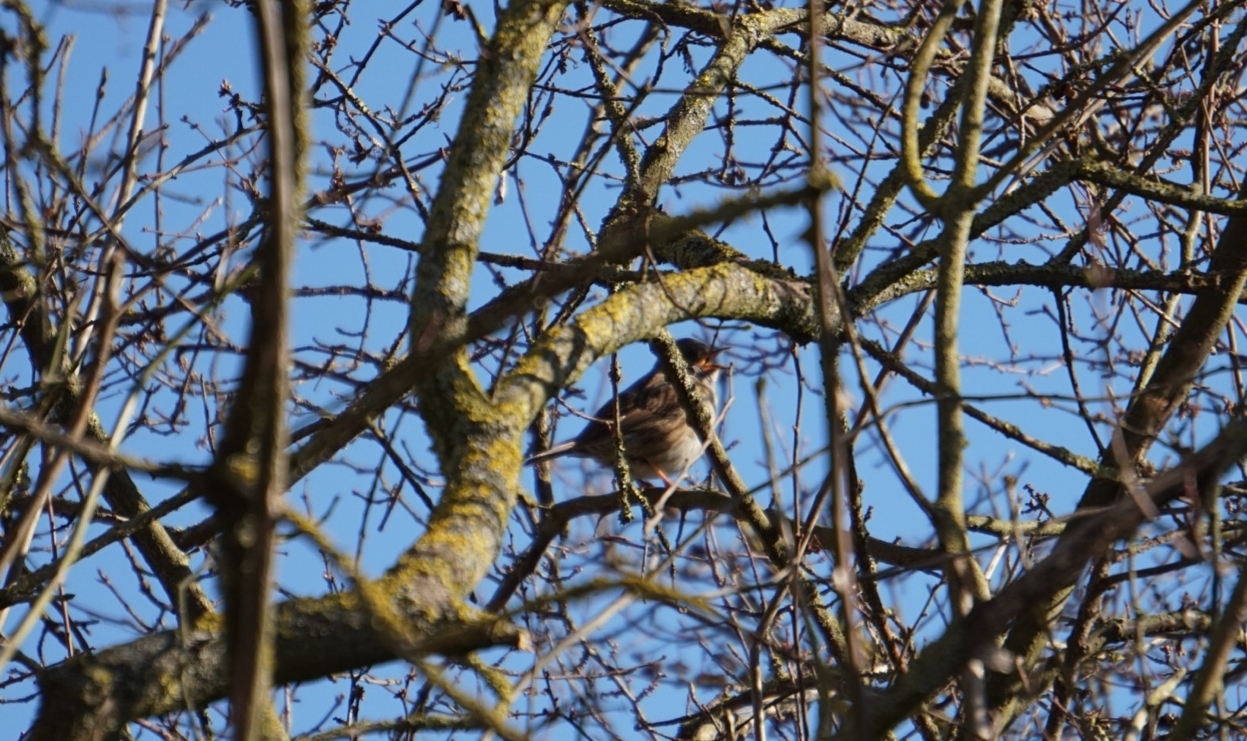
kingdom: Animalia
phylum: Chordata
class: Aves
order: Passeriformes
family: Prunellidae
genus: Prunella
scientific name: Prunella modularis
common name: Dunnock
